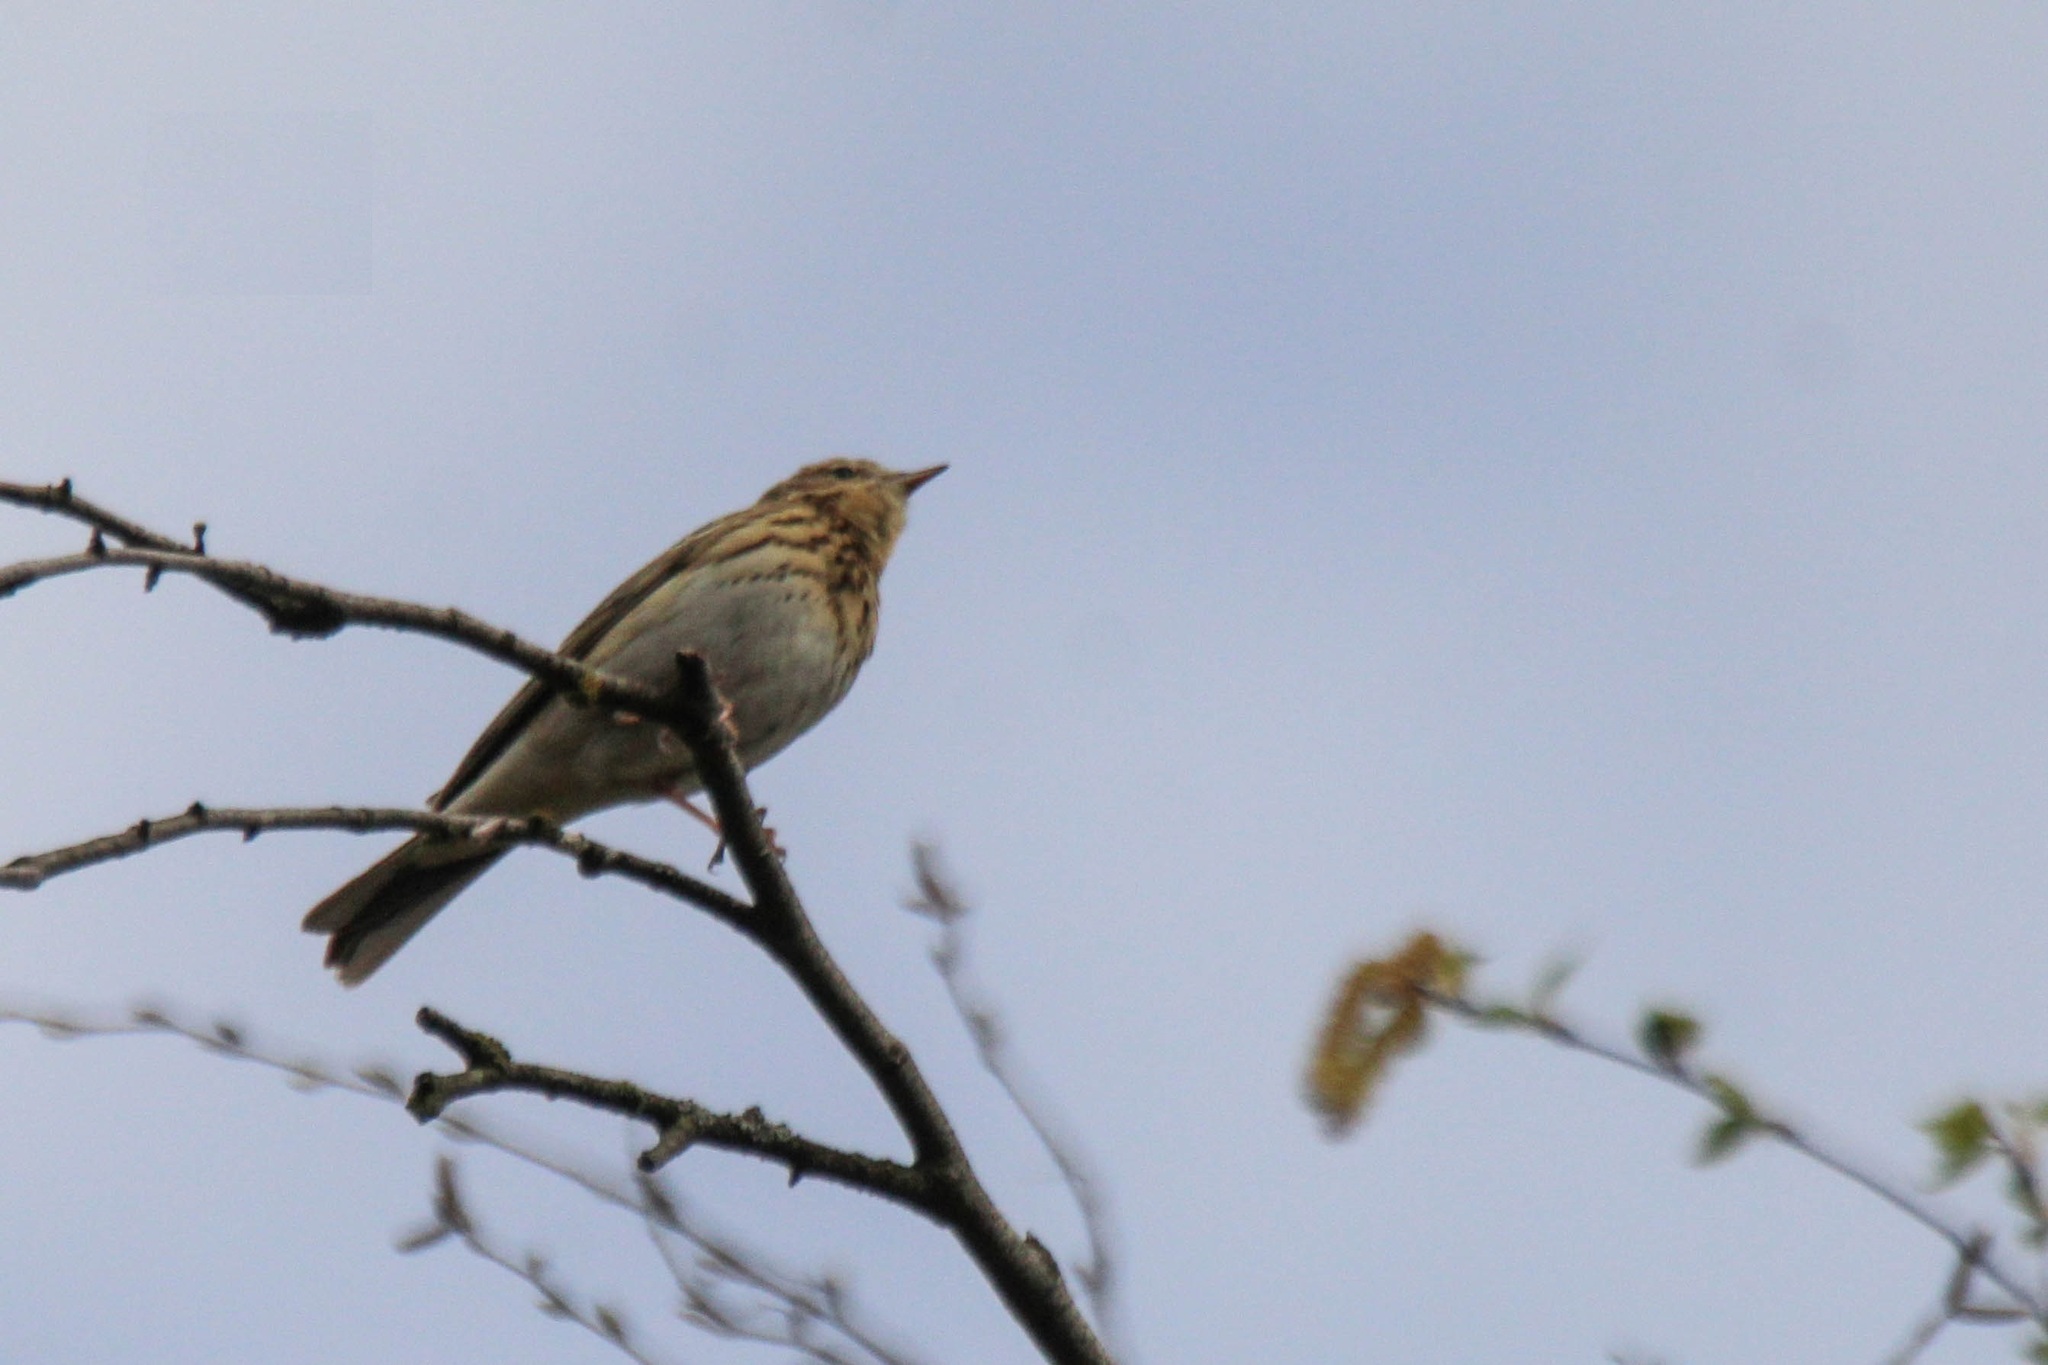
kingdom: Animalia
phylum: Chordata
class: Aves
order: Passeriformes
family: Motacillidae
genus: Anthus
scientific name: Anthus trivialis
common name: Tree pipit
